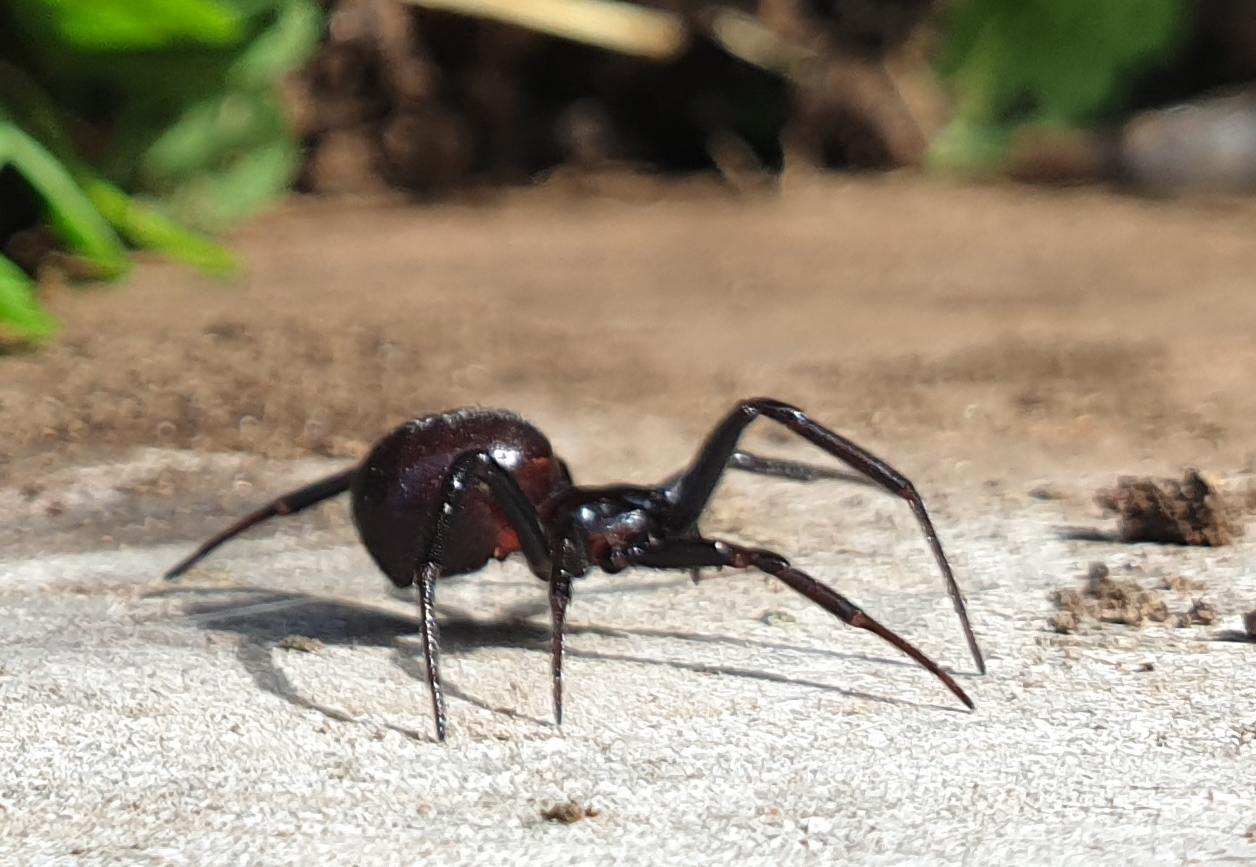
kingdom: Animalia
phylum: Arthropoda
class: Arachnida
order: Araneae
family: Theridiidae
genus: Steatoda
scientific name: Steatoda capensis
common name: Cobweb weaver
